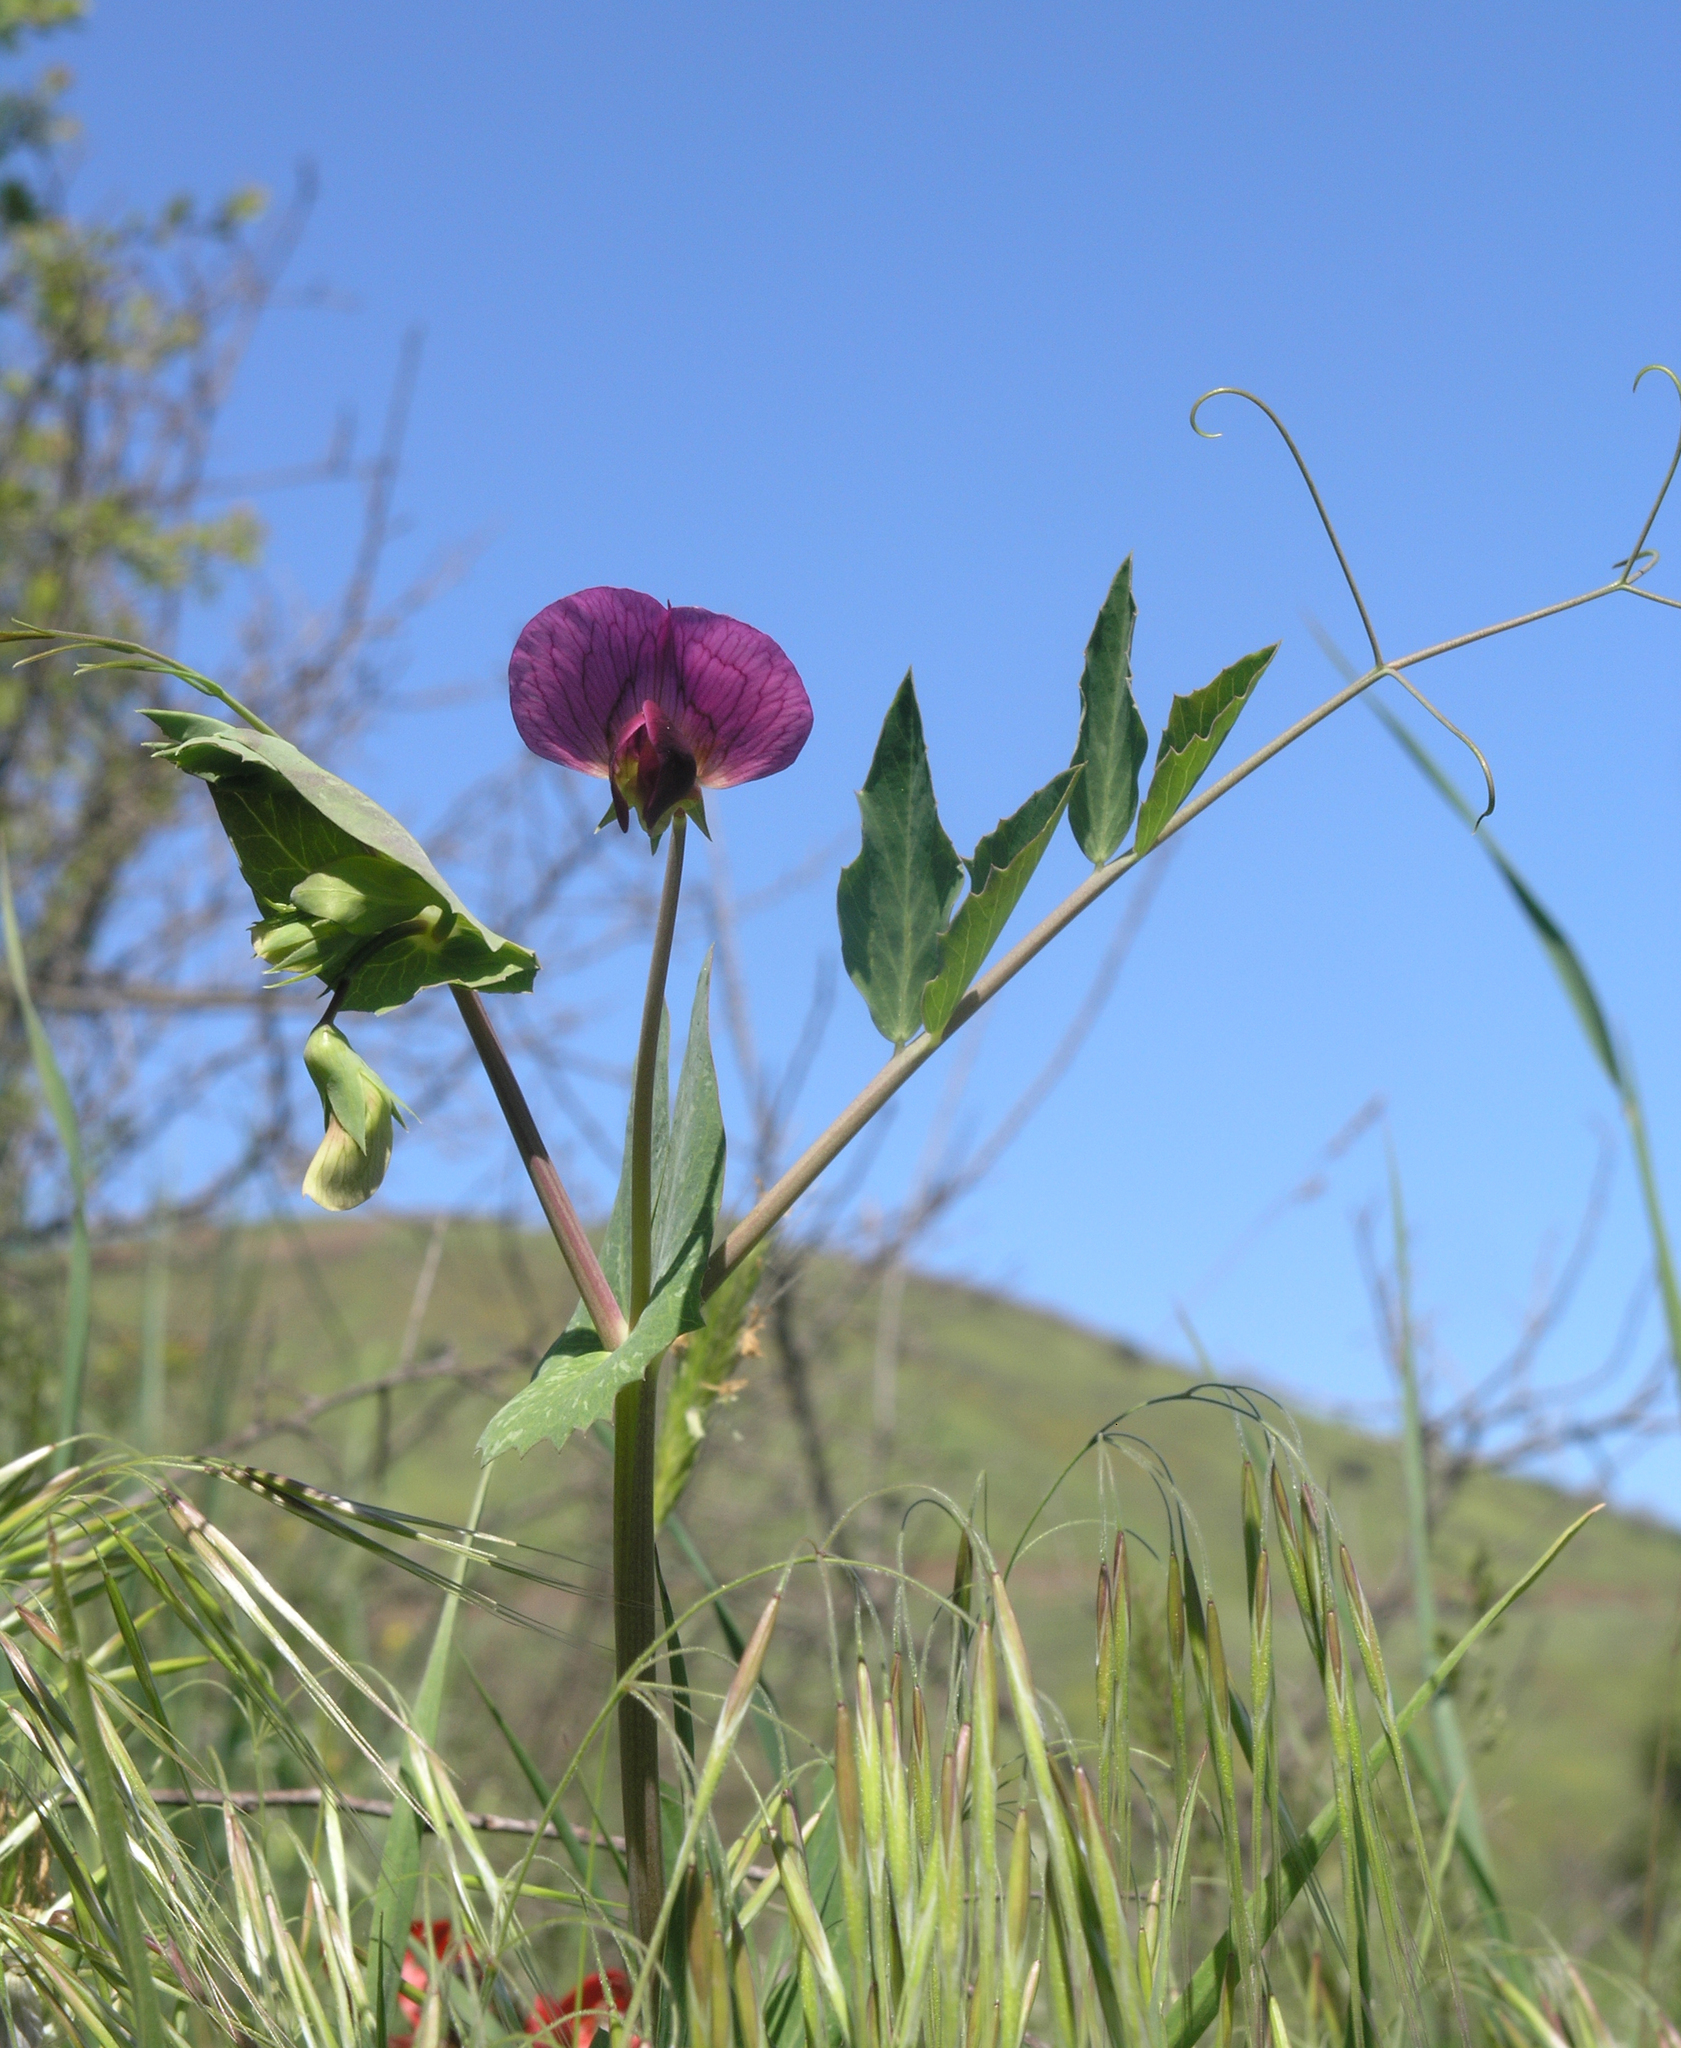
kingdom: Plantae
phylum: Tracheophyta
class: Magnoliopsida
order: Fabales
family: Fabaceae
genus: Lathyrus
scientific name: Lathyrus oleraceus
